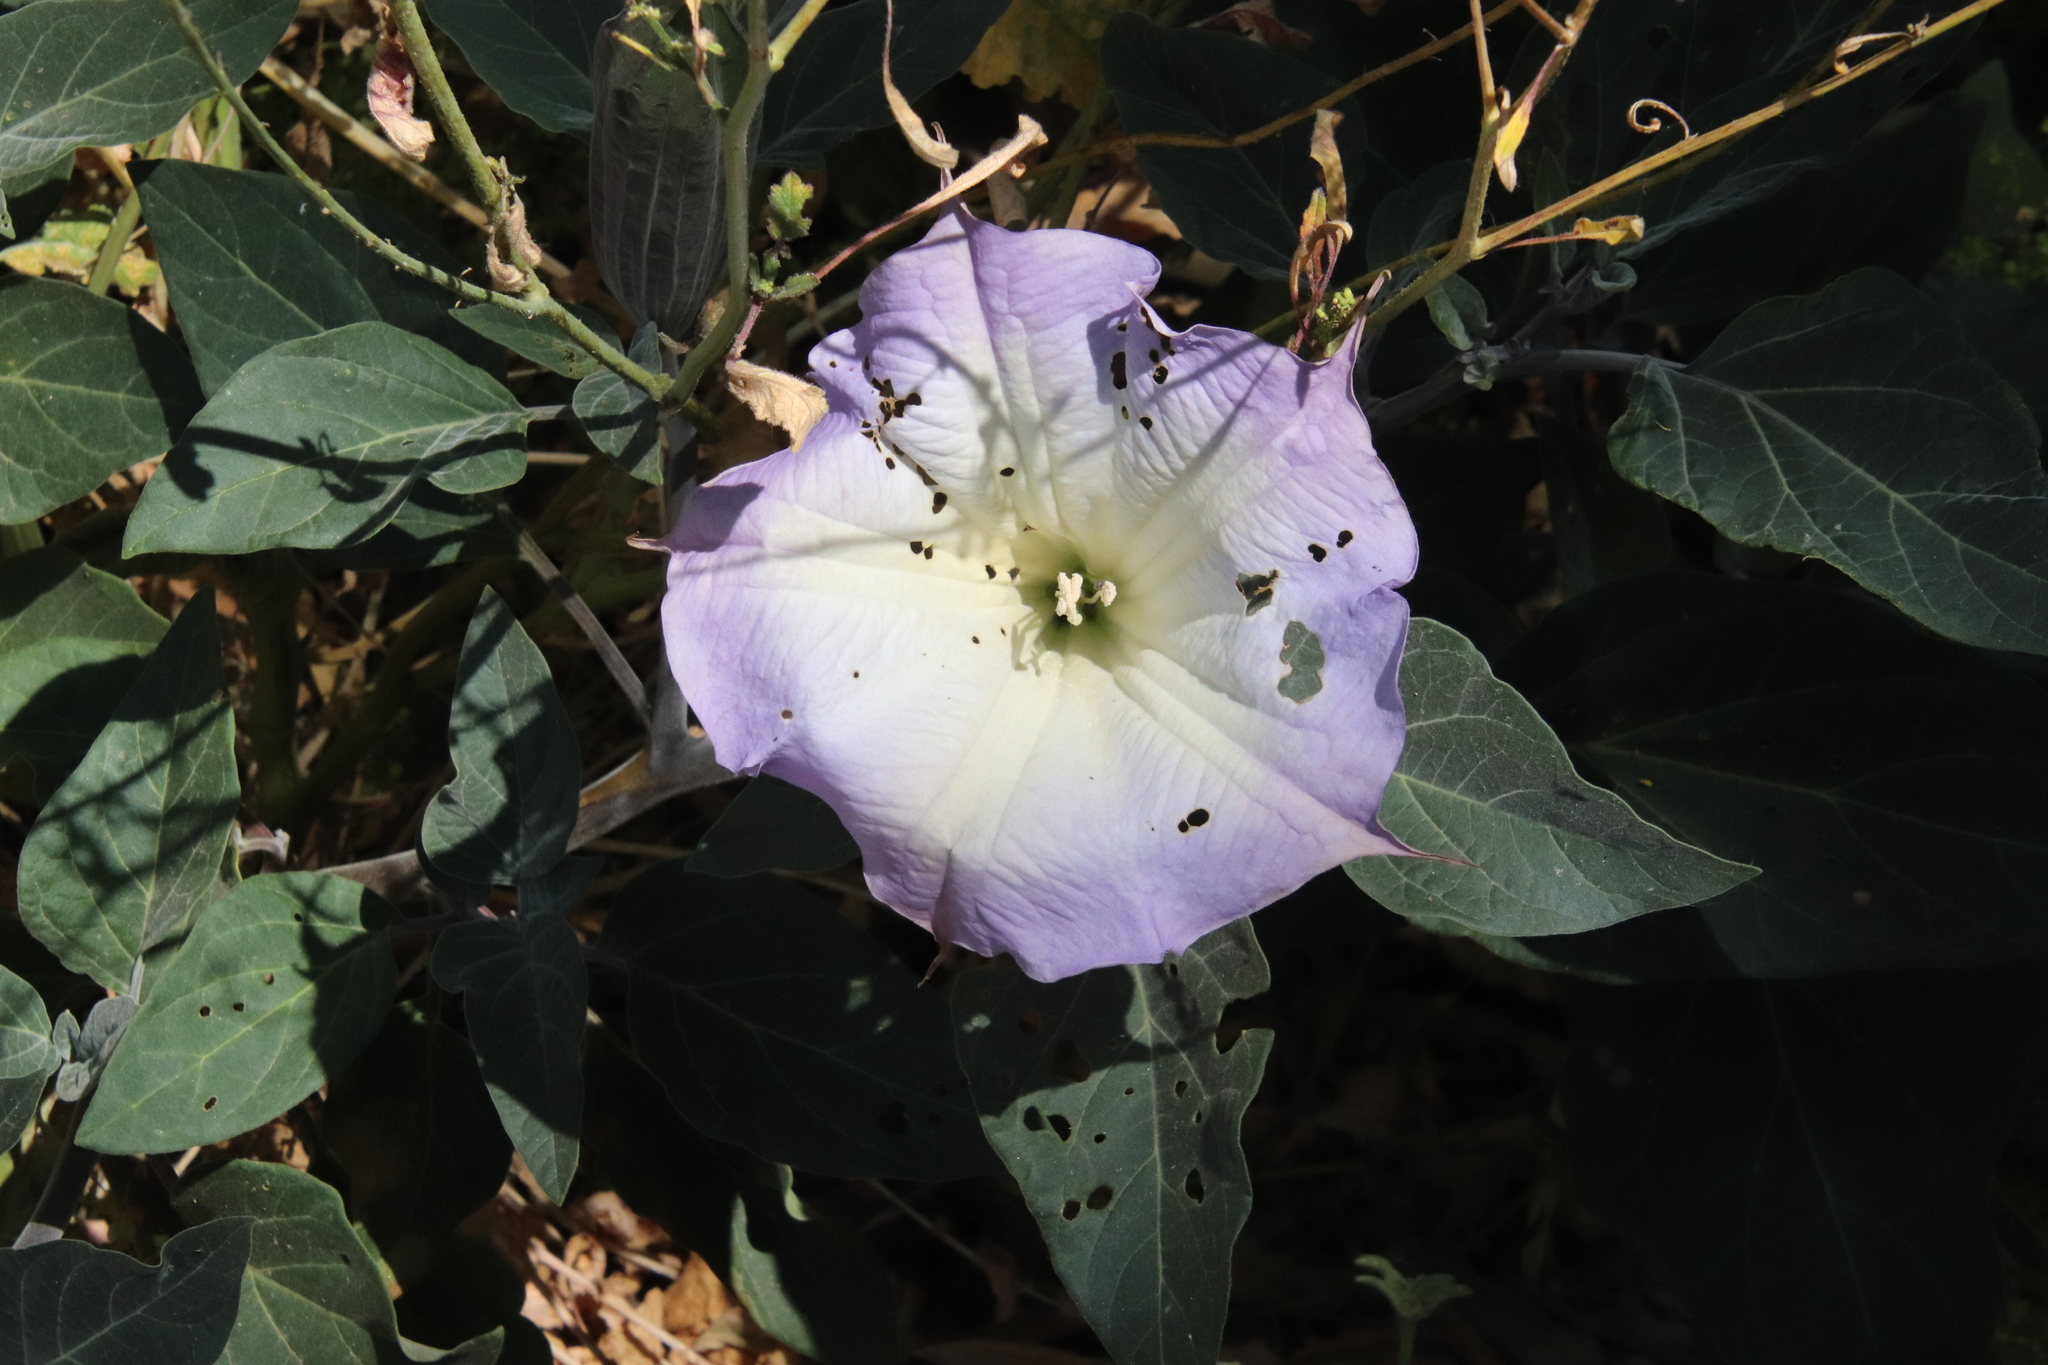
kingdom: Plantae
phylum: Tracheophyta
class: Magnoliopsida
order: Solanales
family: Solanaceae
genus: Datura
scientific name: Datura wrightii
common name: Sacred thorn-apple
